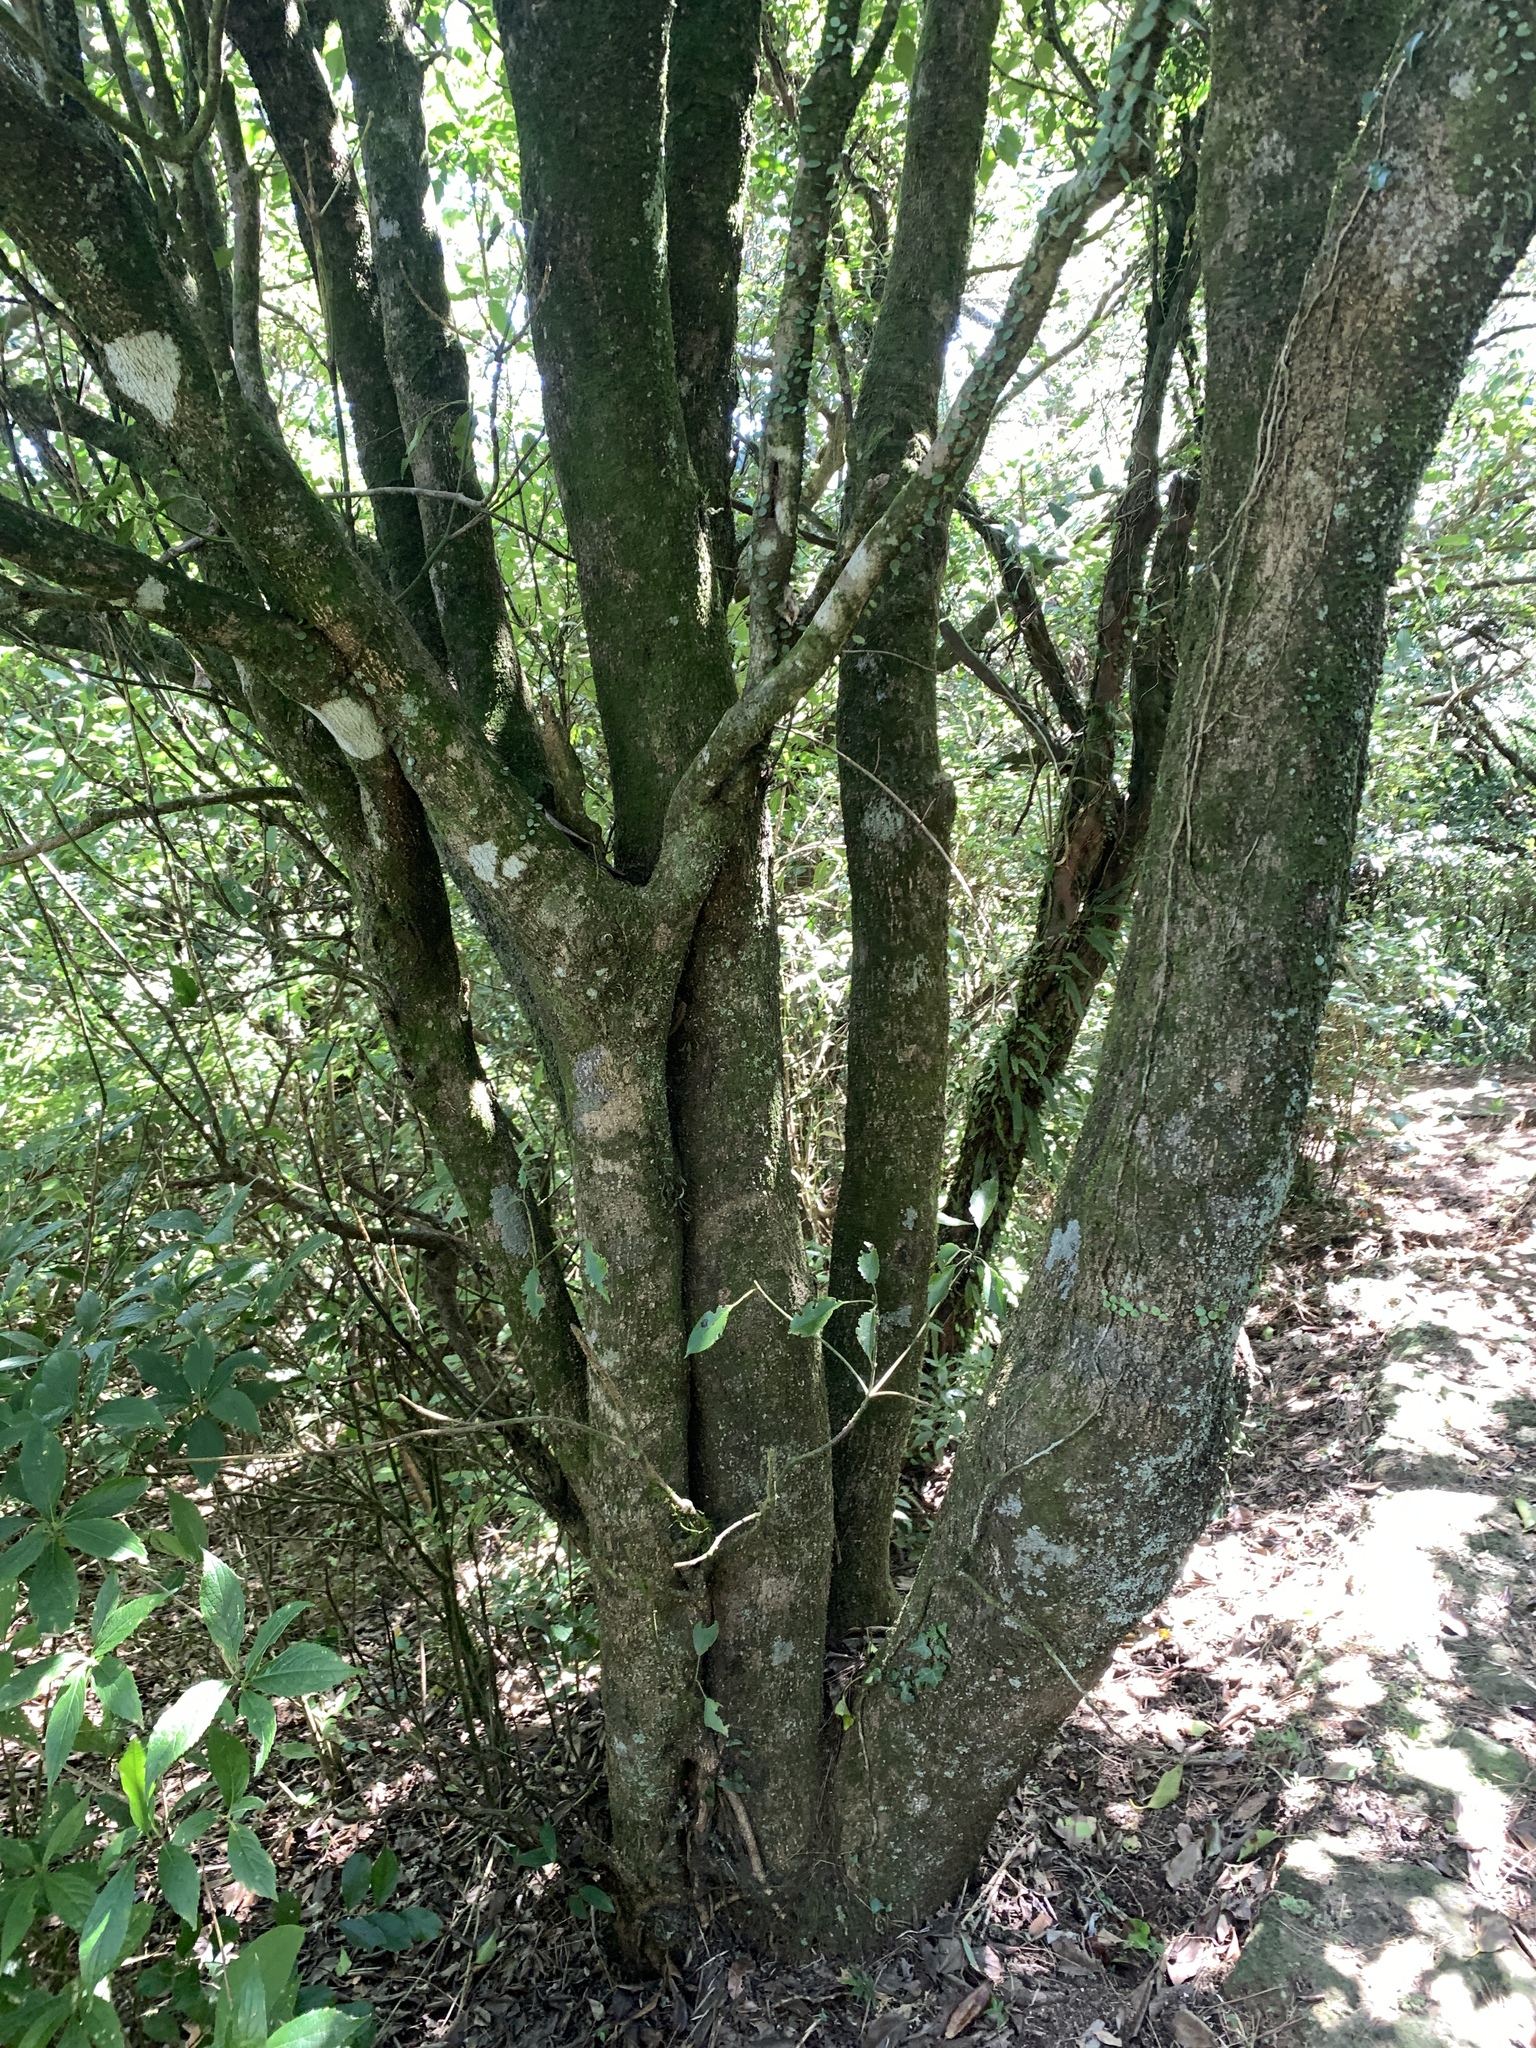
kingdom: Plantae
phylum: Tracheophyta
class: Magnoliopsida
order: Trochodendrales
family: Trochodendraceae
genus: Trochodendron
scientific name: Trochodendron aralioides
